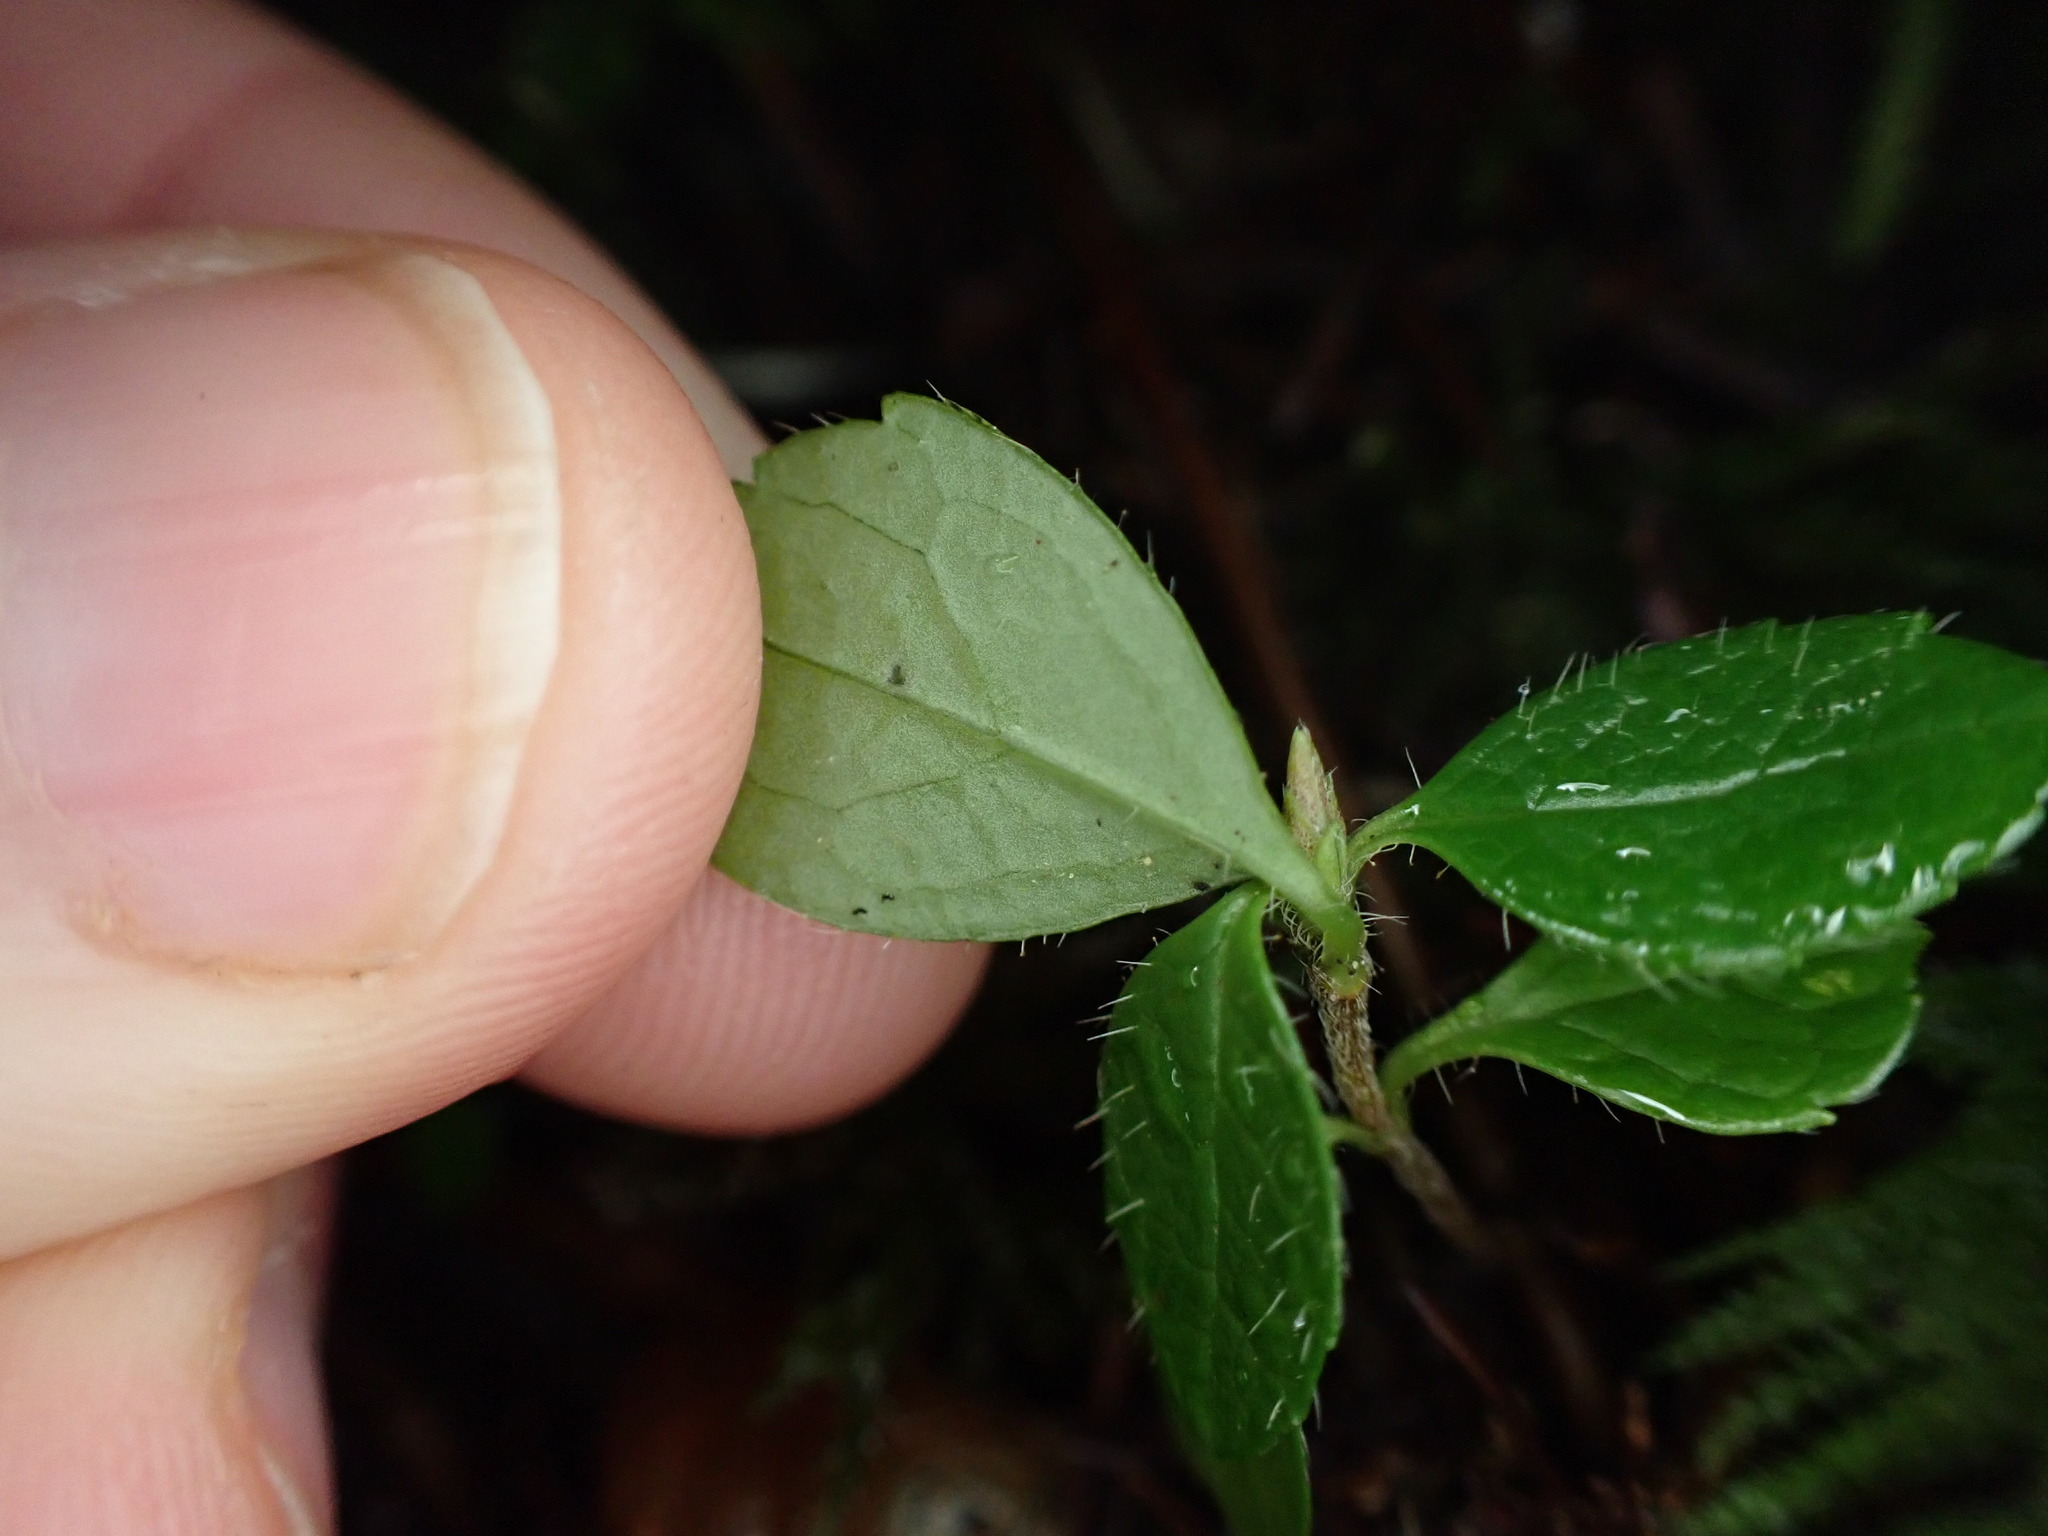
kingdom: Plantae
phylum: Tracheophyta
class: Magnoliopsida
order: Dipsacales
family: Caprifoliaceae
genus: Linnaea
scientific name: Linnaea borealis
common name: Twinflower
